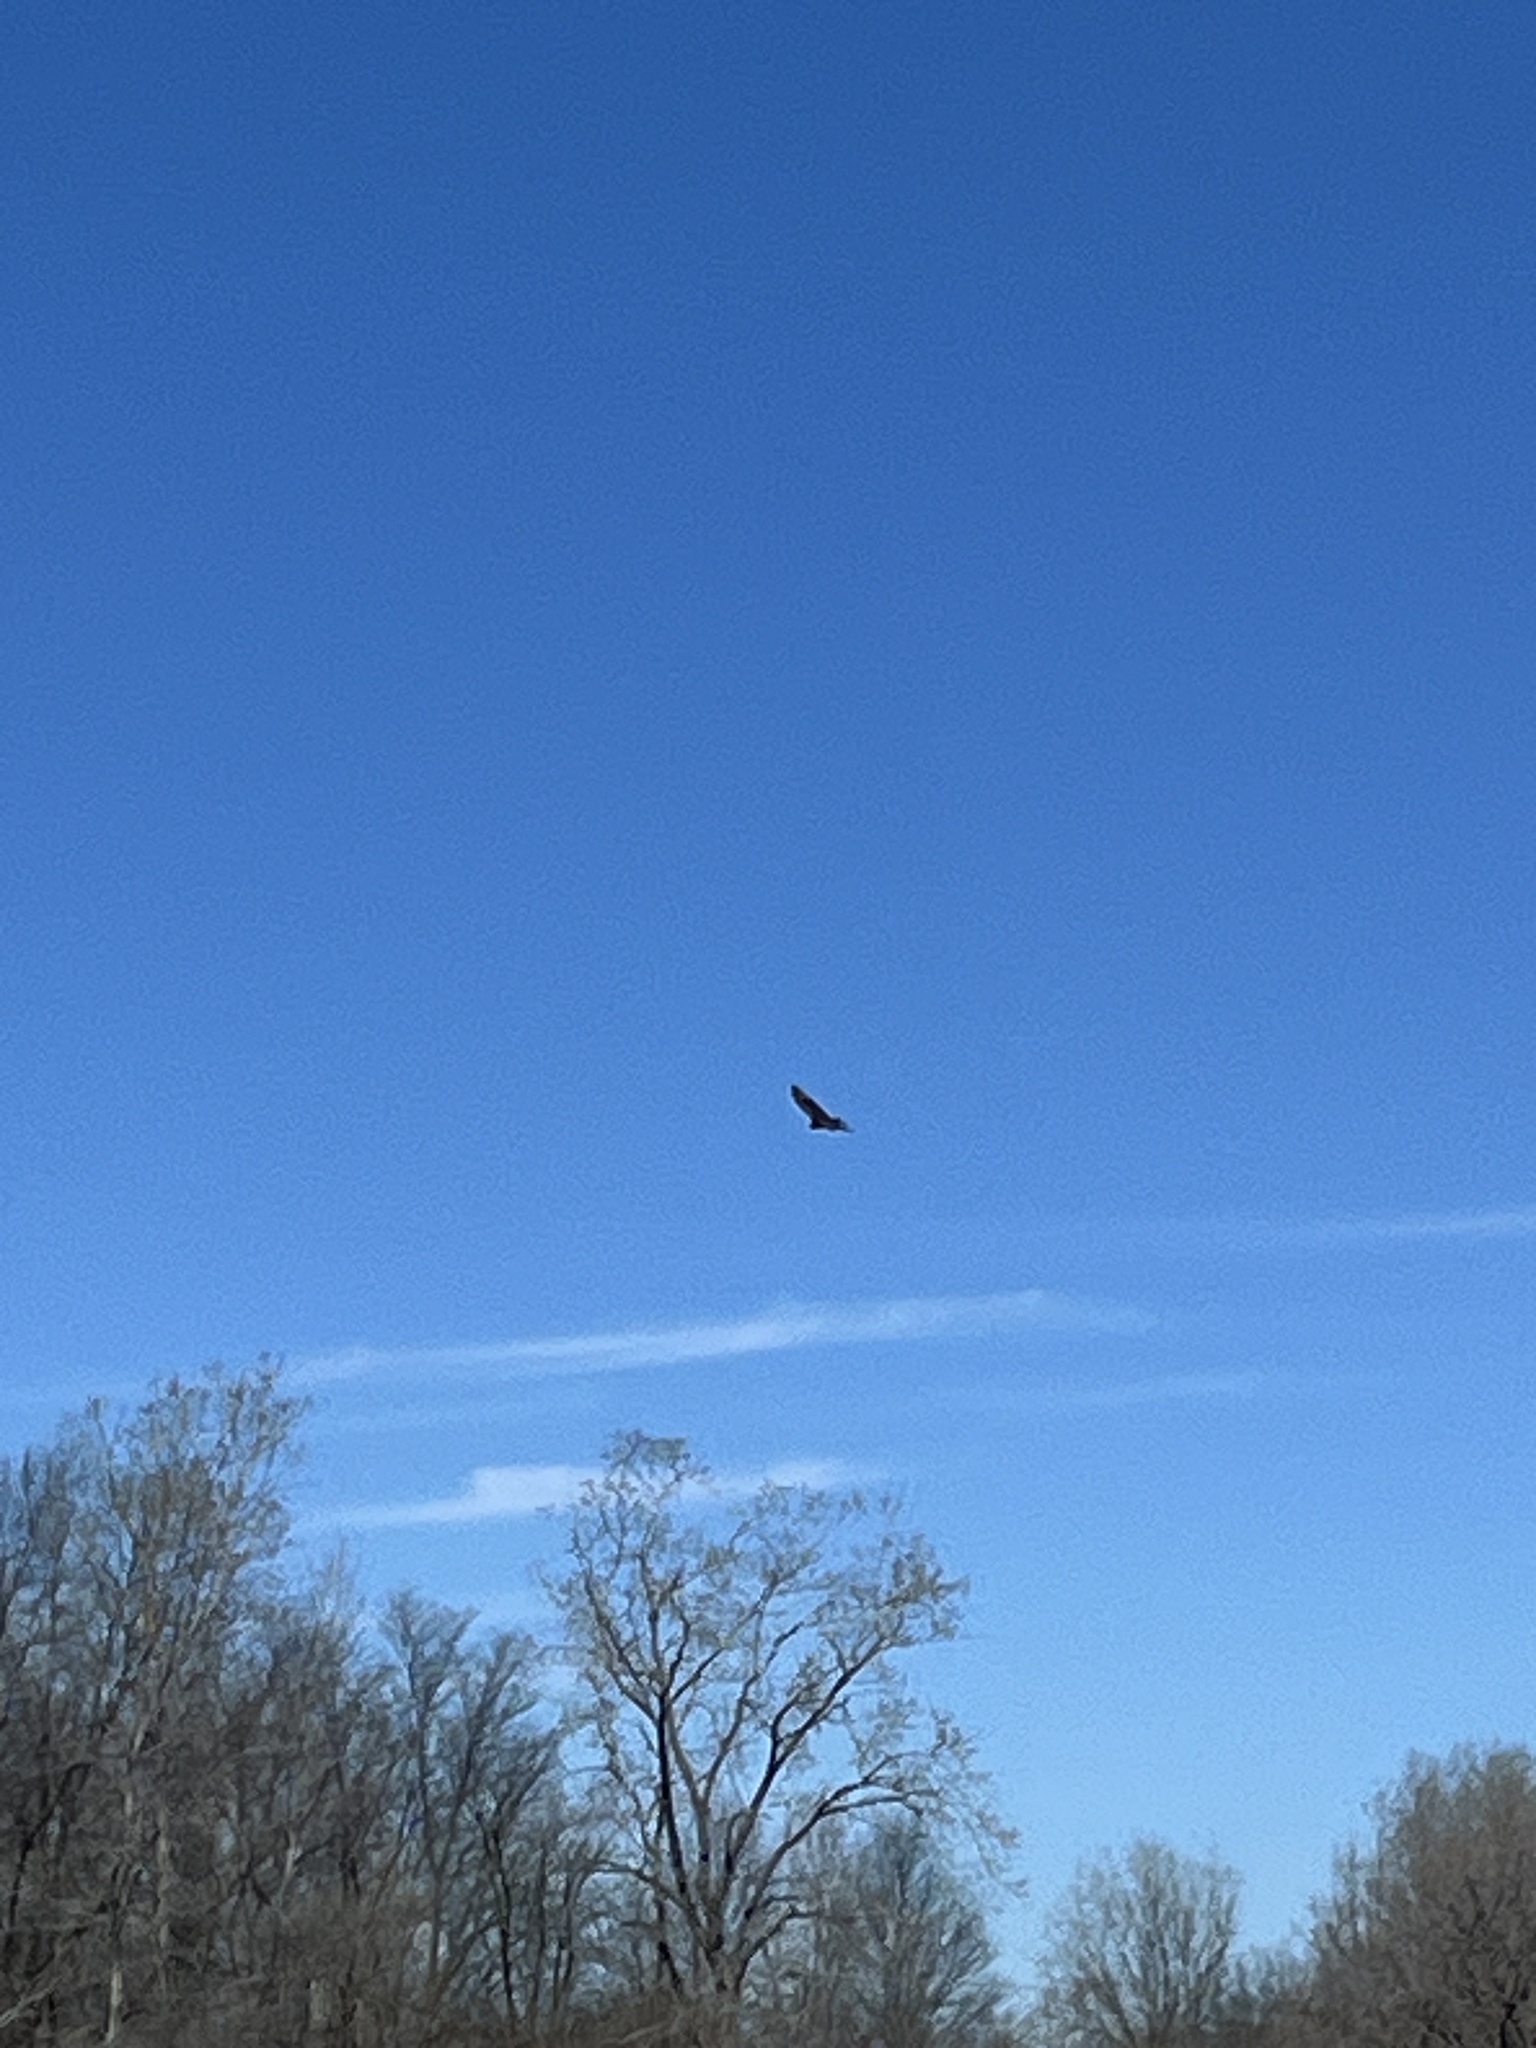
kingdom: Animalia
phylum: Chordata
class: Aves
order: Accipitriformes
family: Cathartidae
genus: Cathartes
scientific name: Cathartes aura
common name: Turkey vulture
